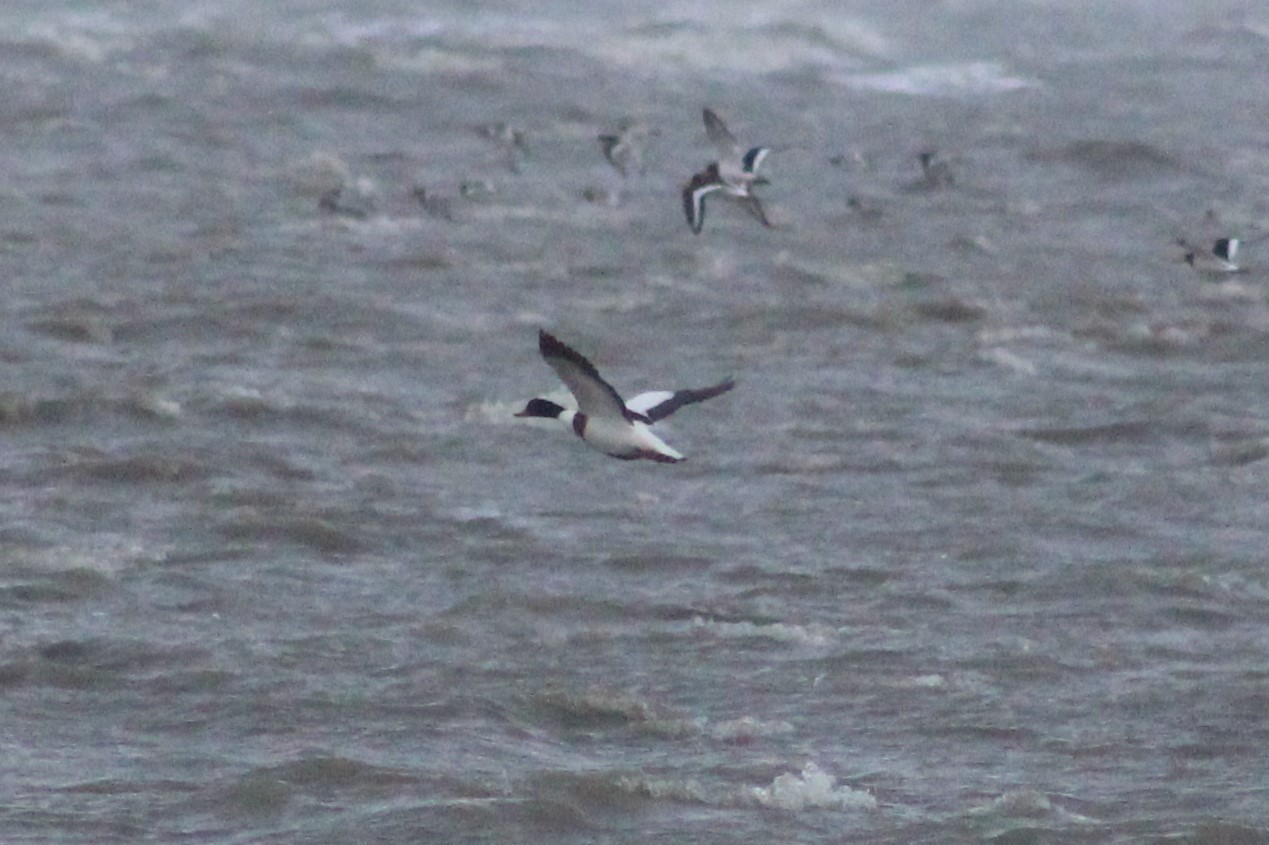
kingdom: Animalia
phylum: Chordata
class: Aves
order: Anseriformes
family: Anatidae
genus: Tadorna
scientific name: Tadorna tadorna
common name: Common shelduck
